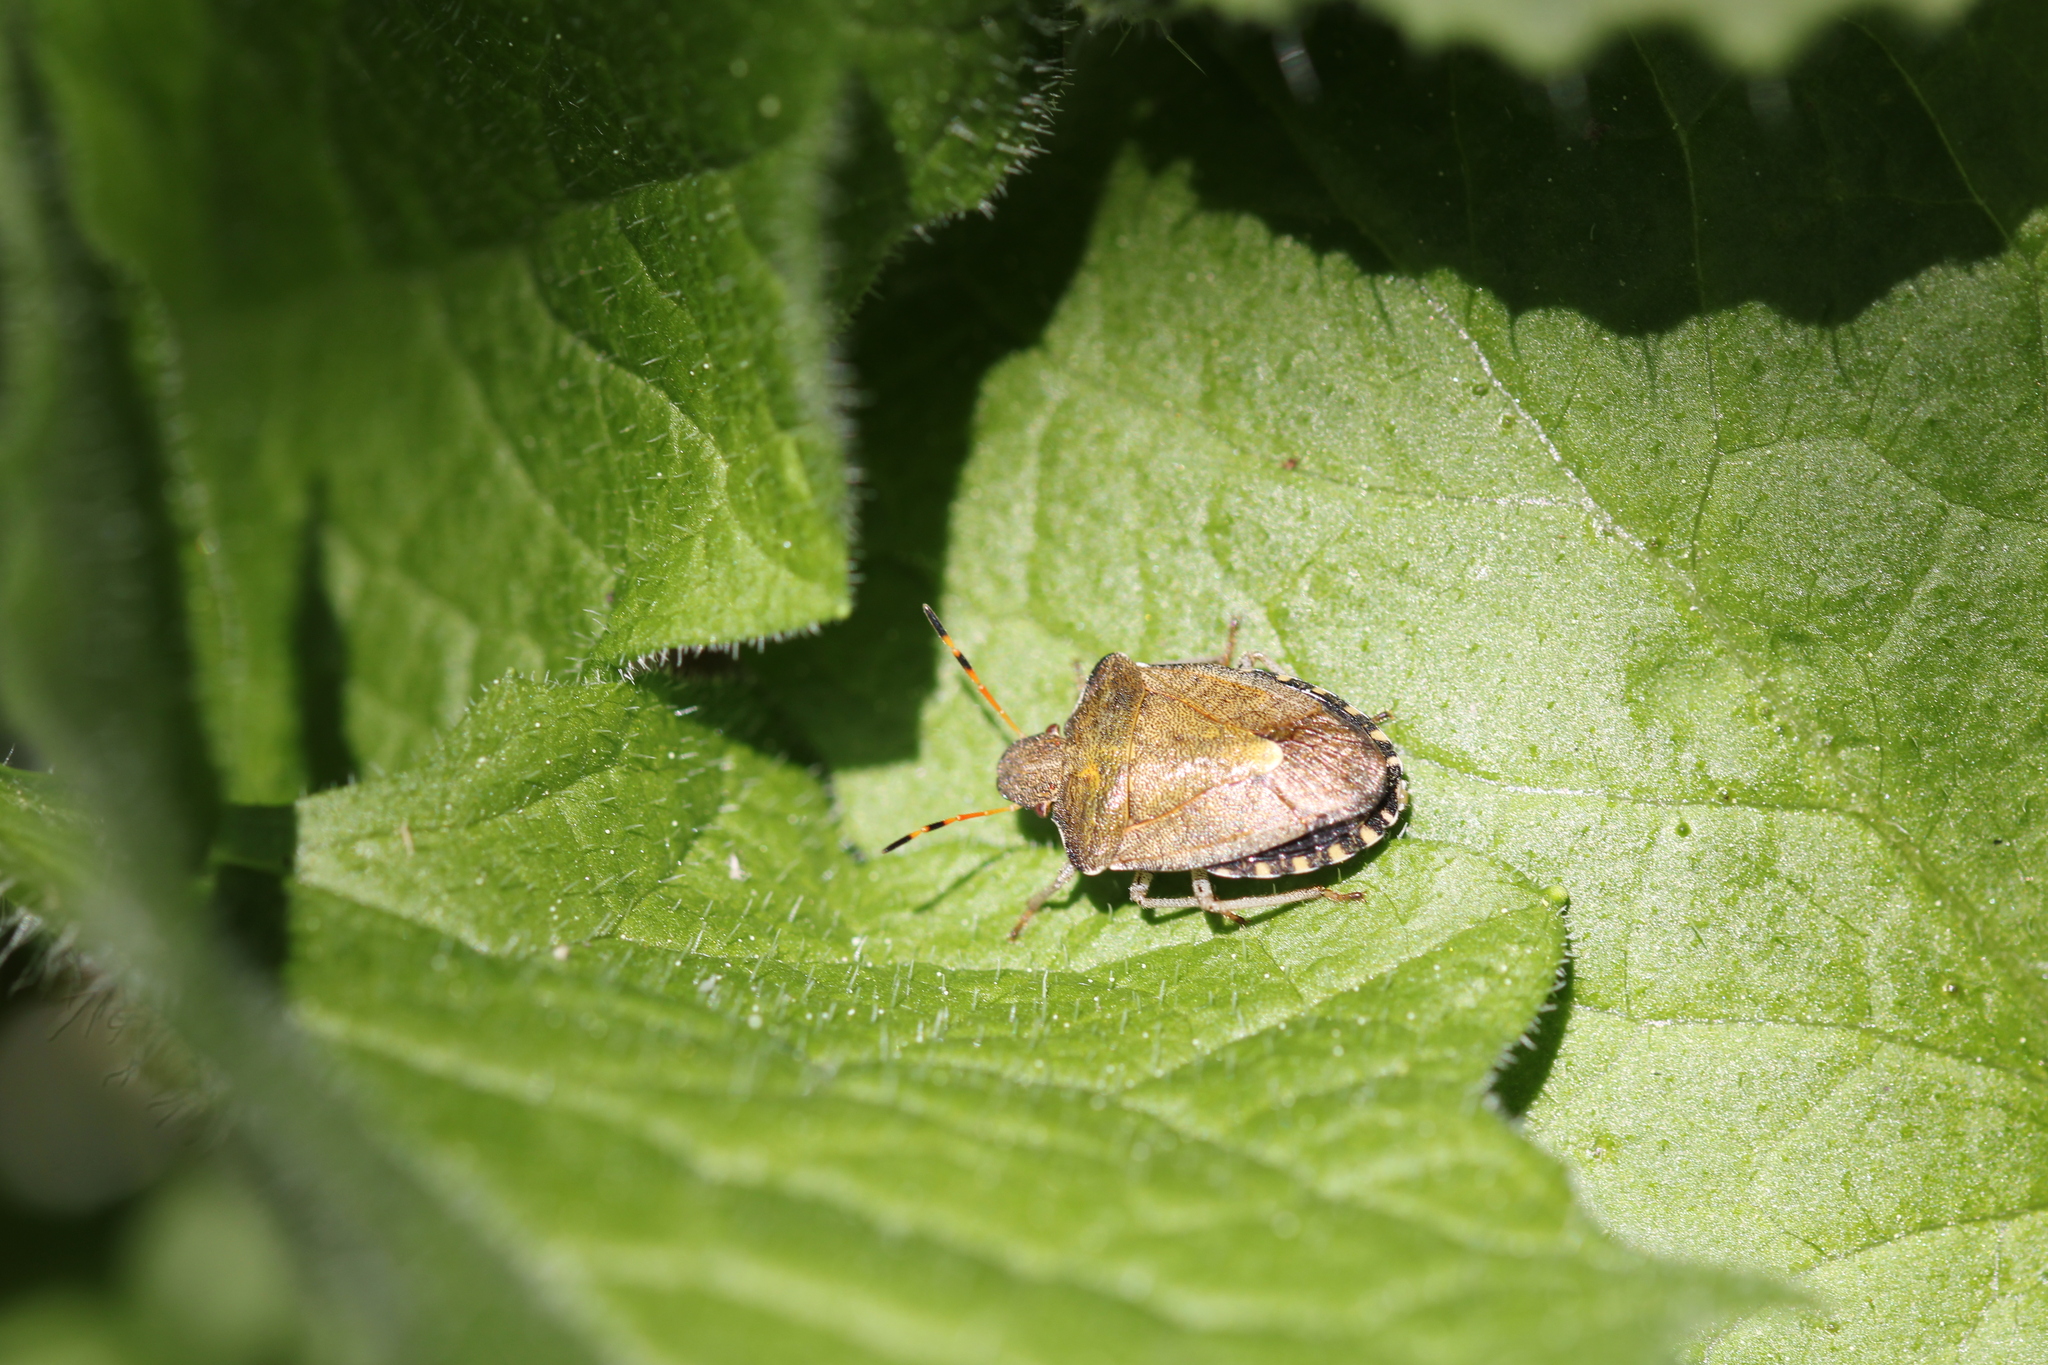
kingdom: Animalia
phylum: Arthropoda
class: Insecta
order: Hemiptera
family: Pentatomidae
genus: Holcostethus
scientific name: Holcostethus strictus
